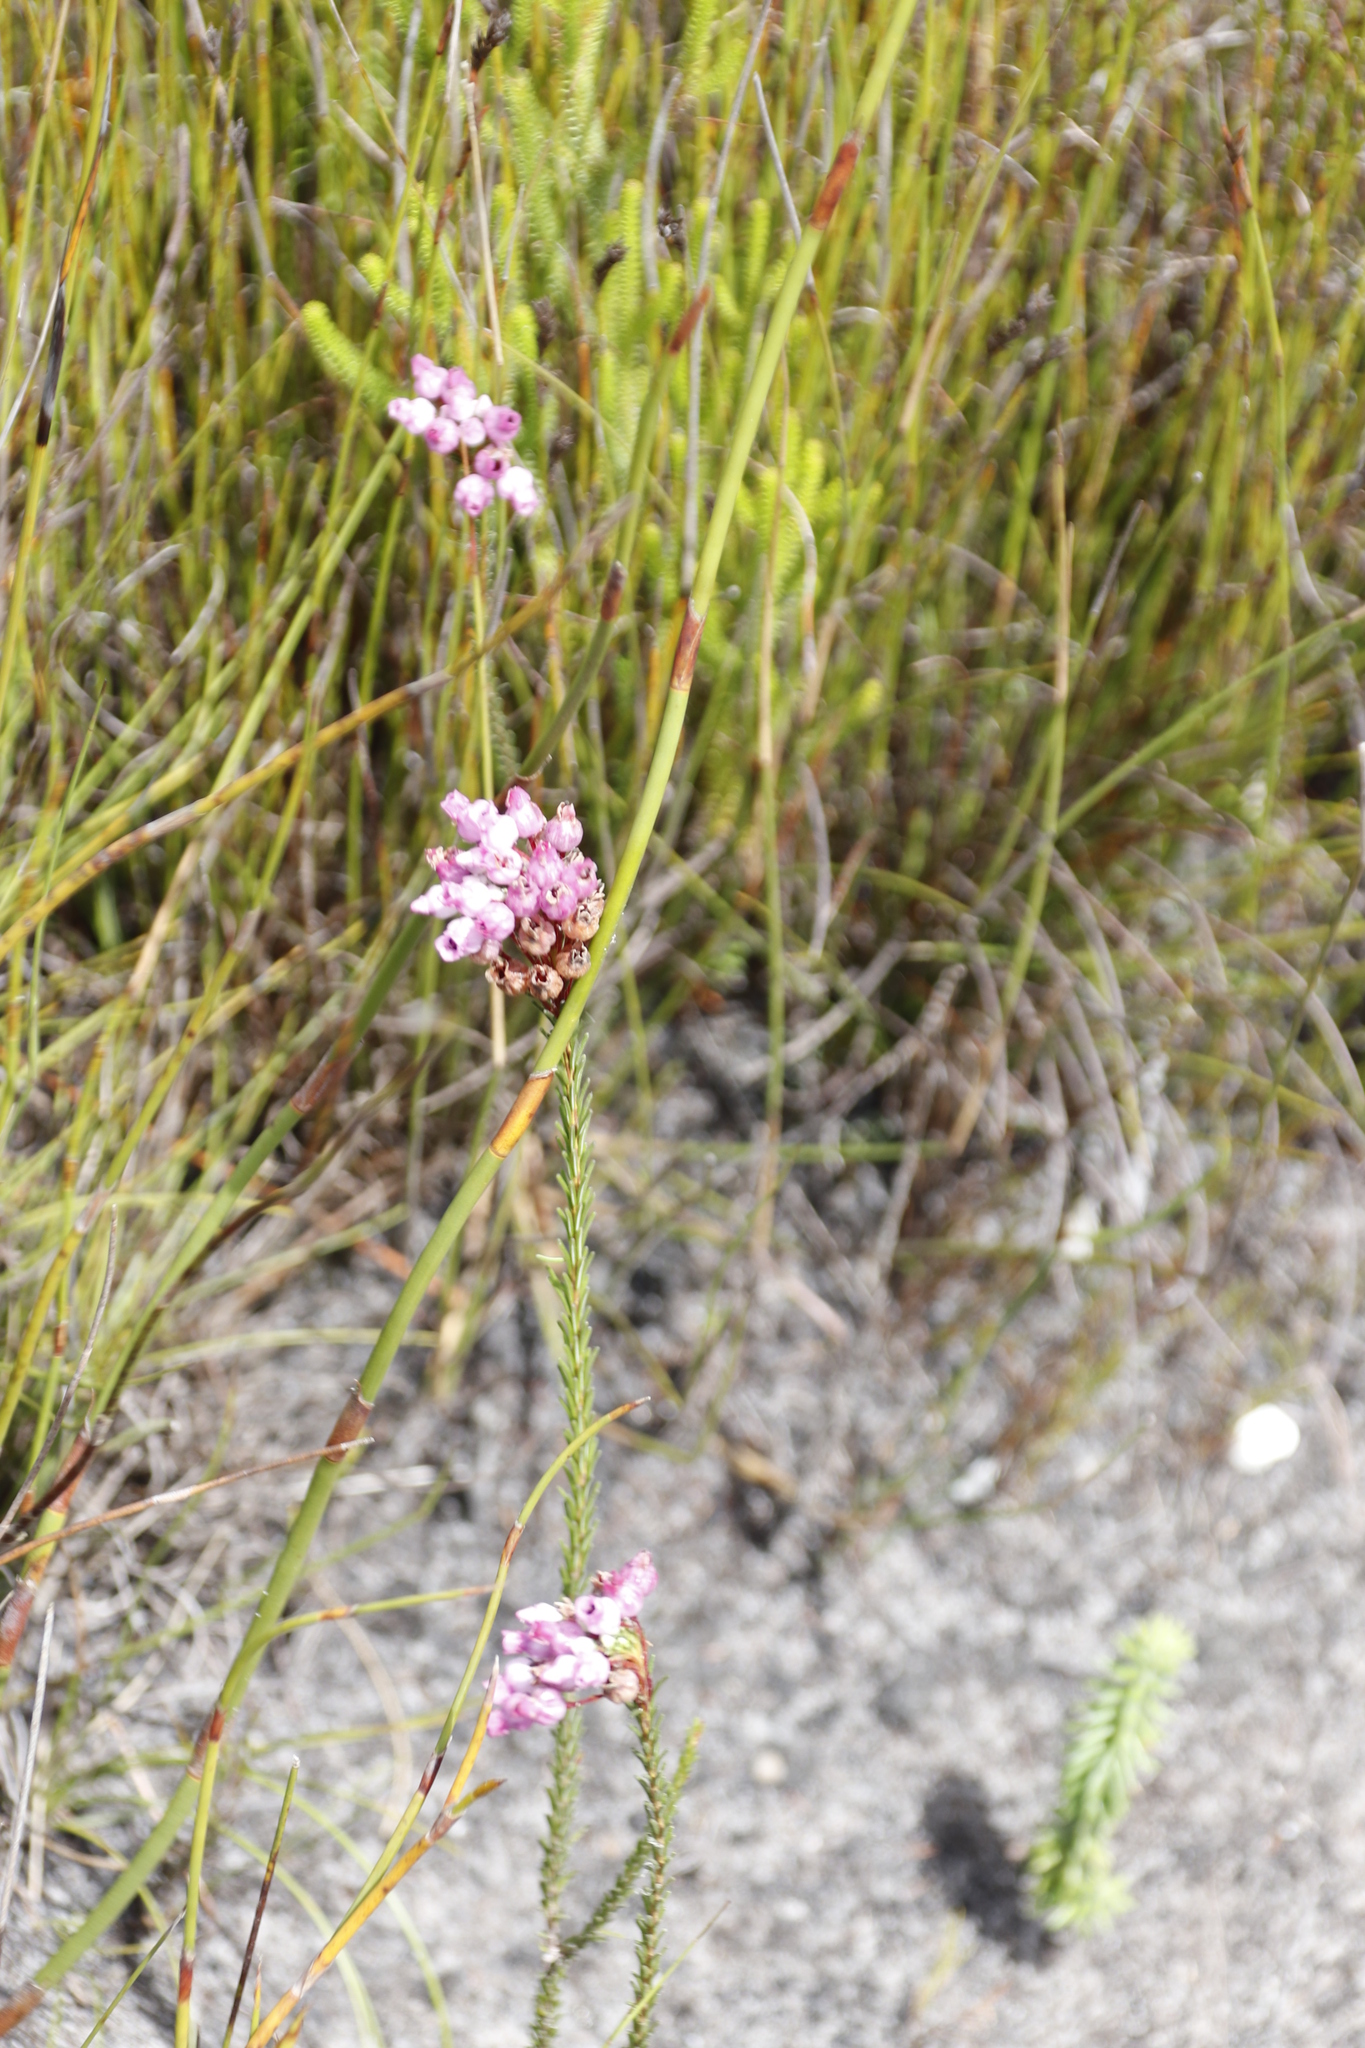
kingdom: Plantae
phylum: Tracheophyta
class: Magnoliopsida
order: Ericales
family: Ericaceae
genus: Erica
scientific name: Erica obliqua
